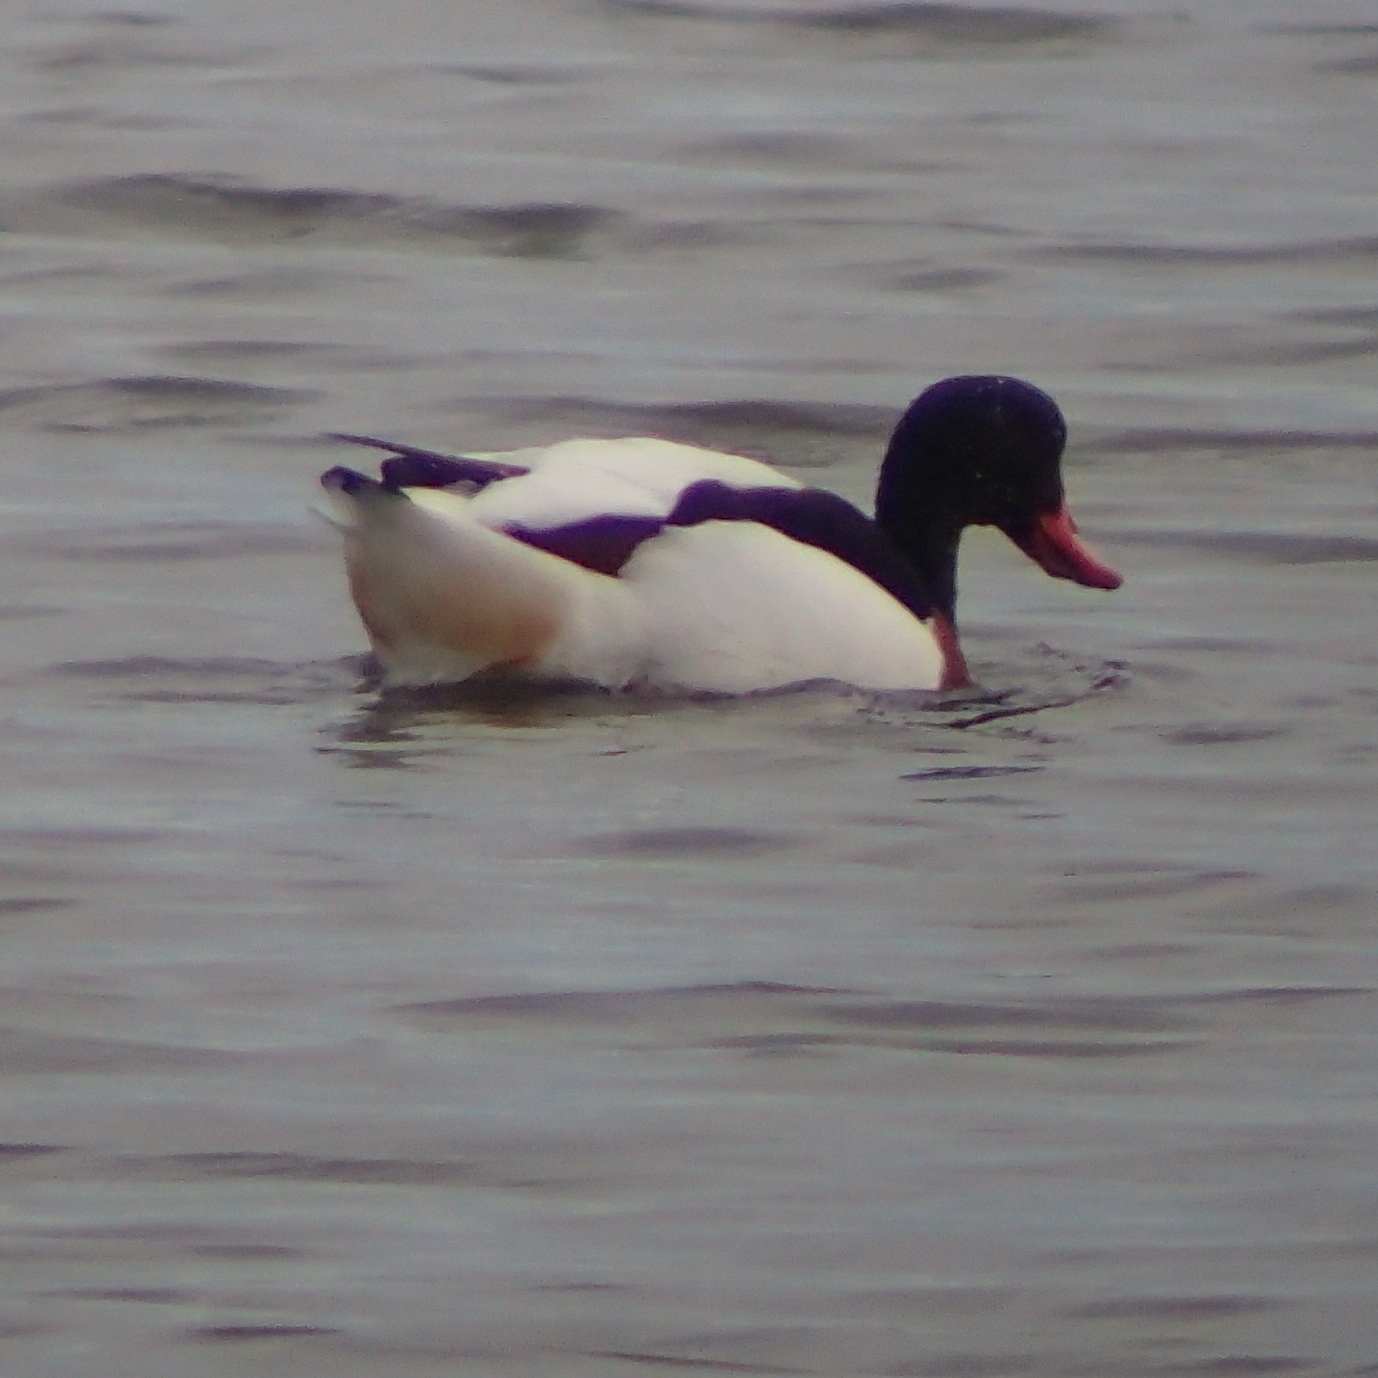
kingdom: Animalia
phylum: Chordata
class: Aves
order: Anseriformes
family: Anatidae
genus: Tadorna
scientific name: Tadorna tadorna
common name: Common shelduck
